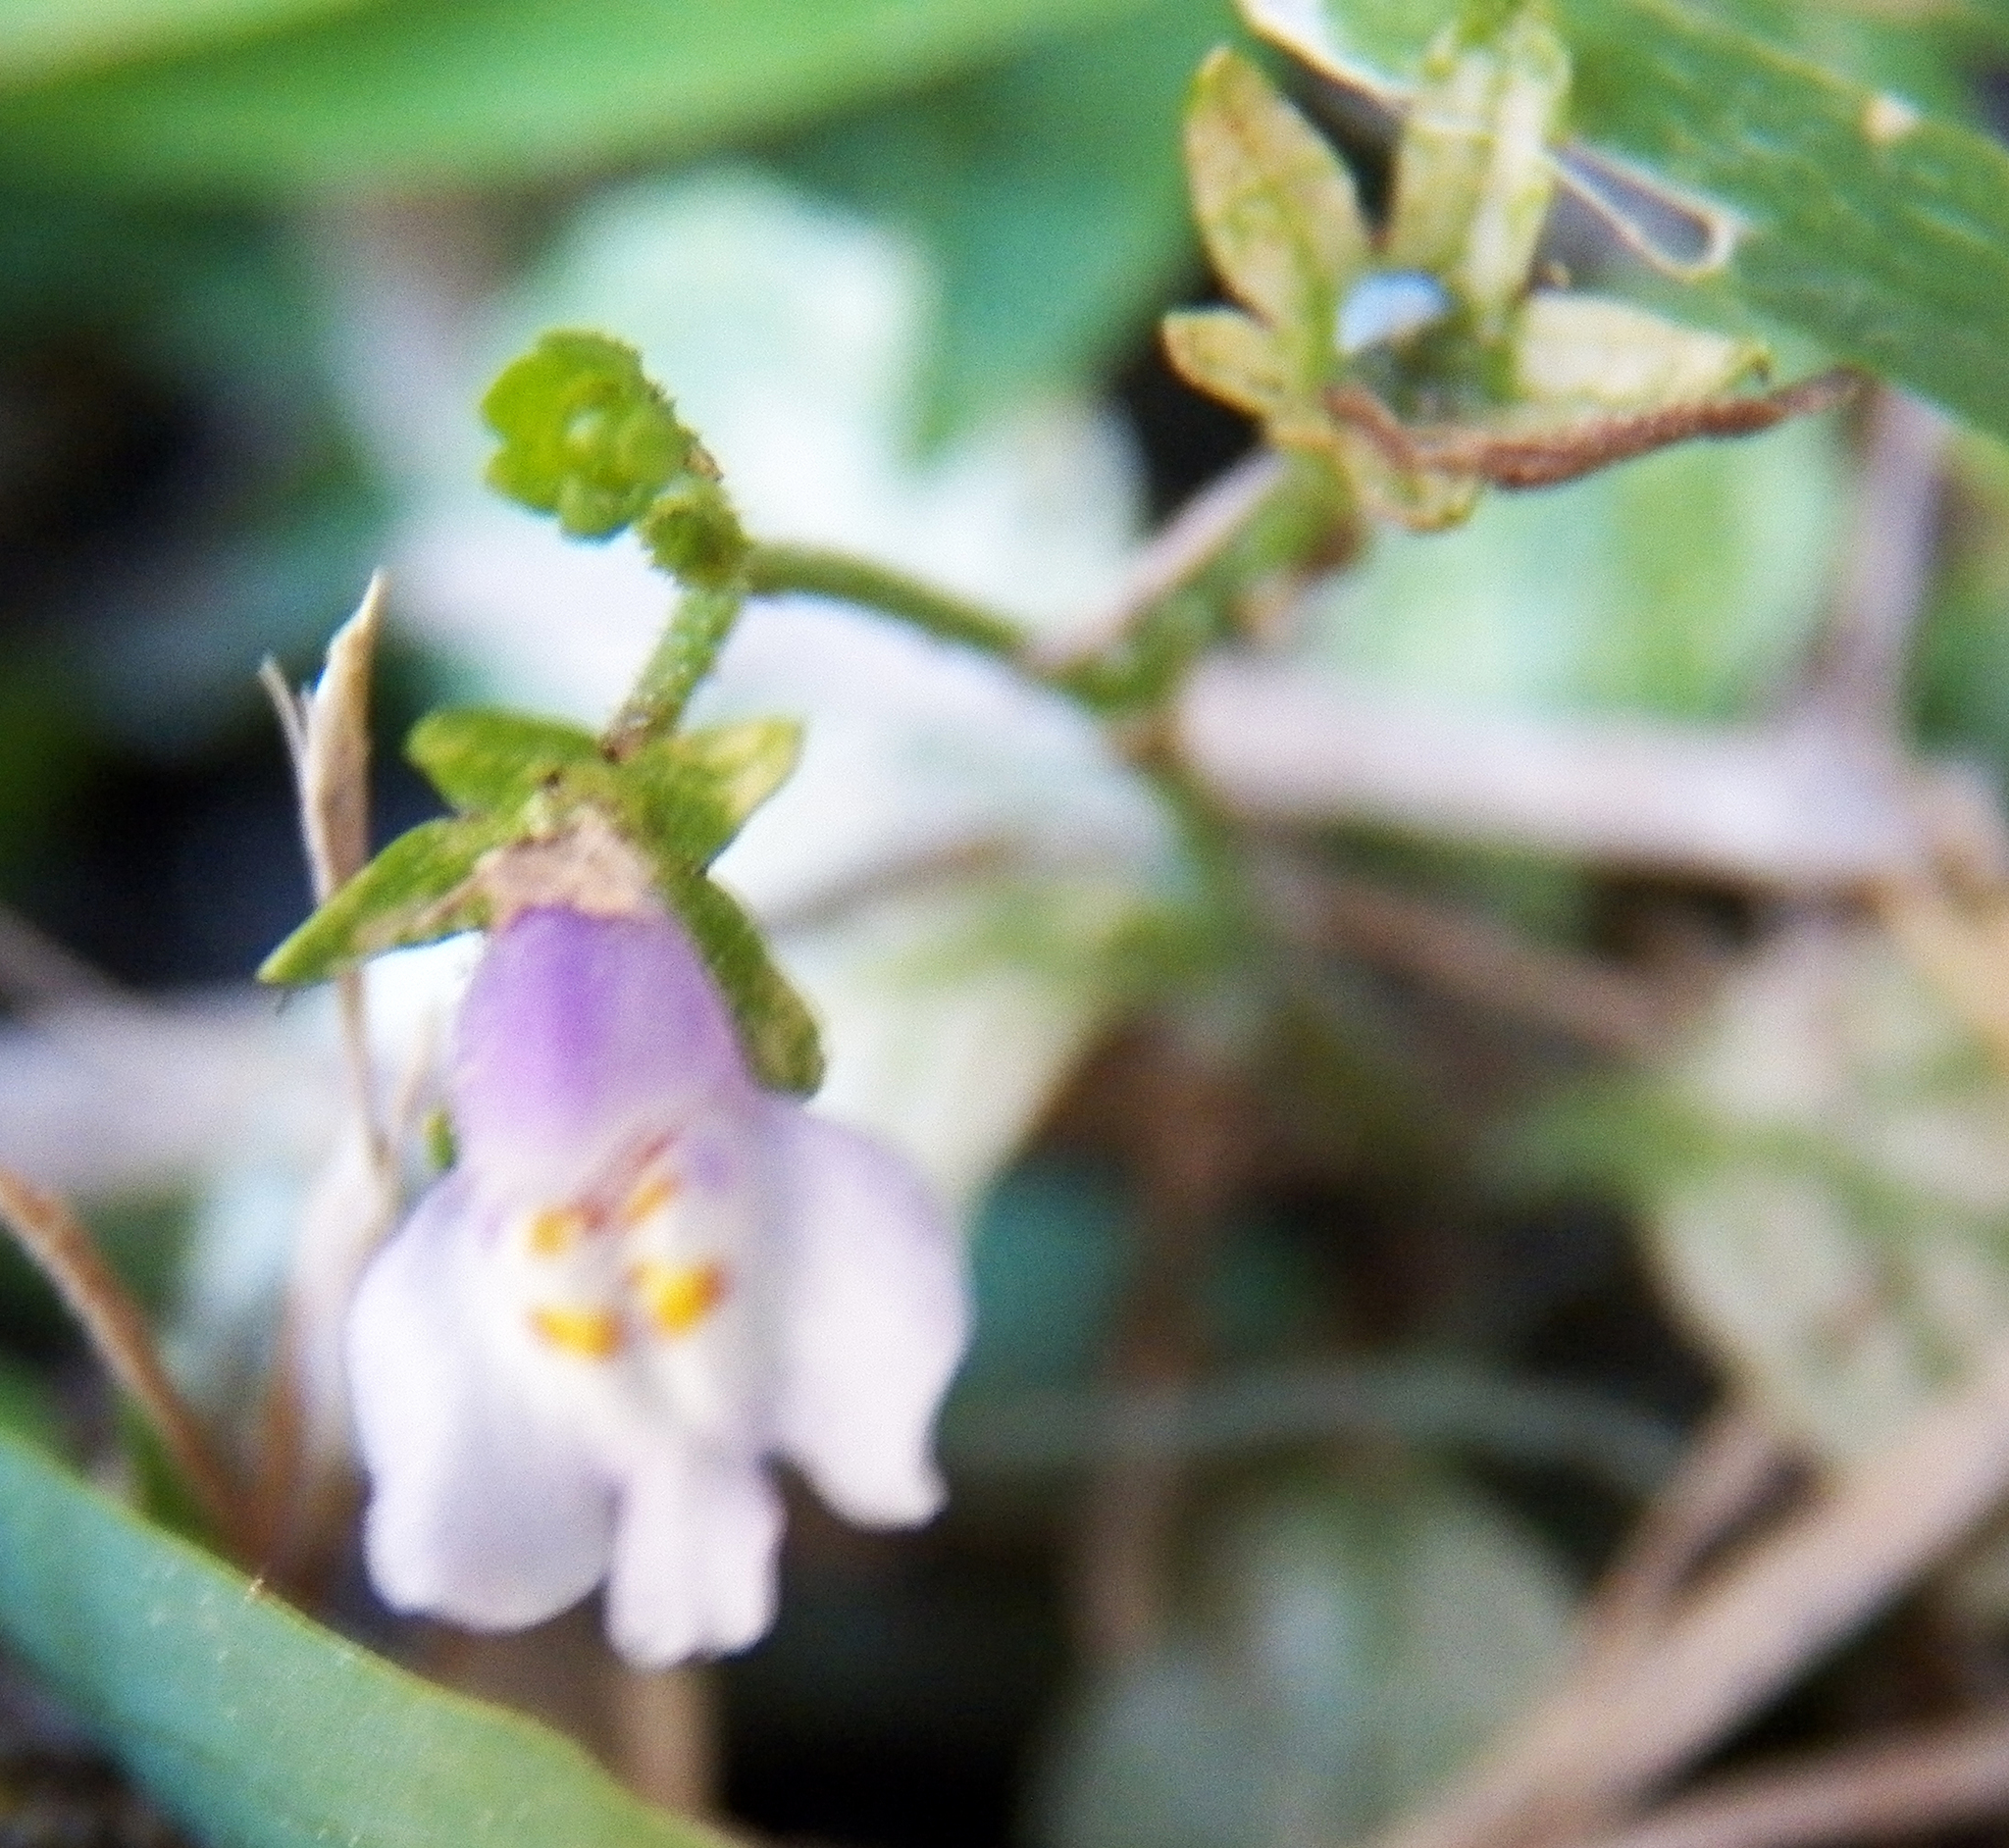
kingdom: Plantae
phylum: Tracheophyta
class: Magnoliopsida
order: Lamiales
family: Mazaceae
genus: Mazus
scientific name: Mazus pumilus
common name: Japanese mazus
